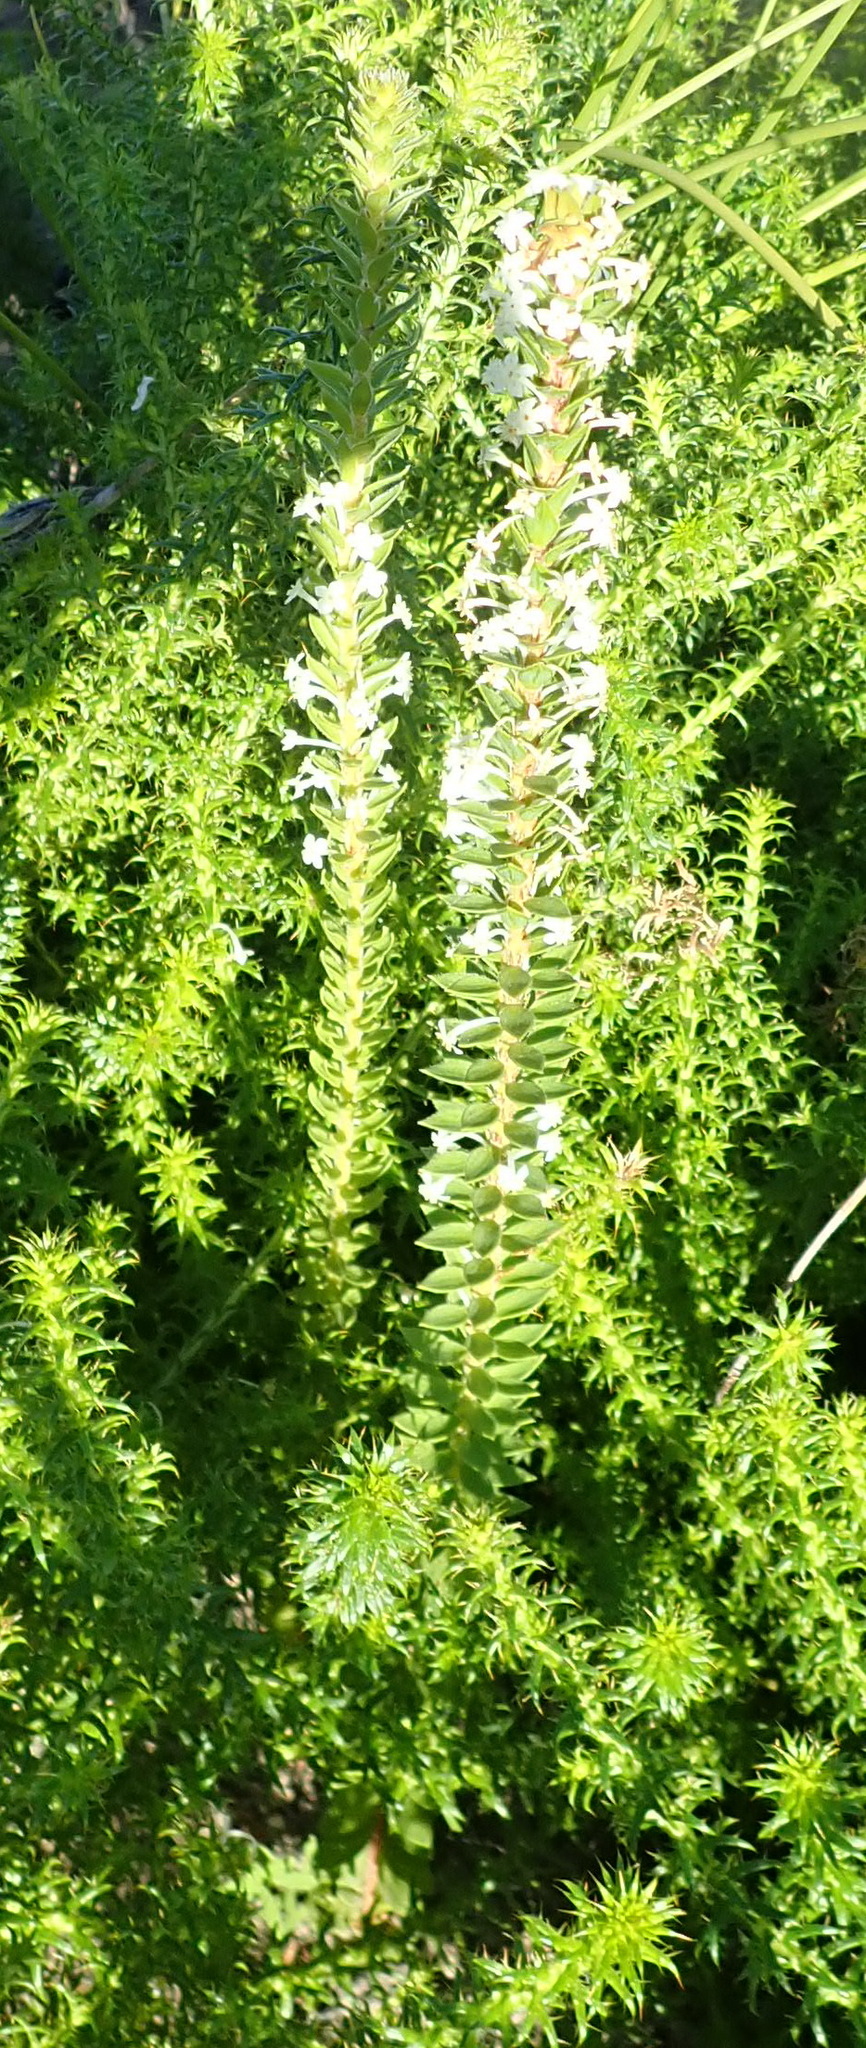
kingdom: Plantae
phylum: Tracheophyta
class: Magnoliopsida
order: Malvales
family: Thymelaeaceae
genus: Struthiola
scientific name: Struthiola hirsuta
